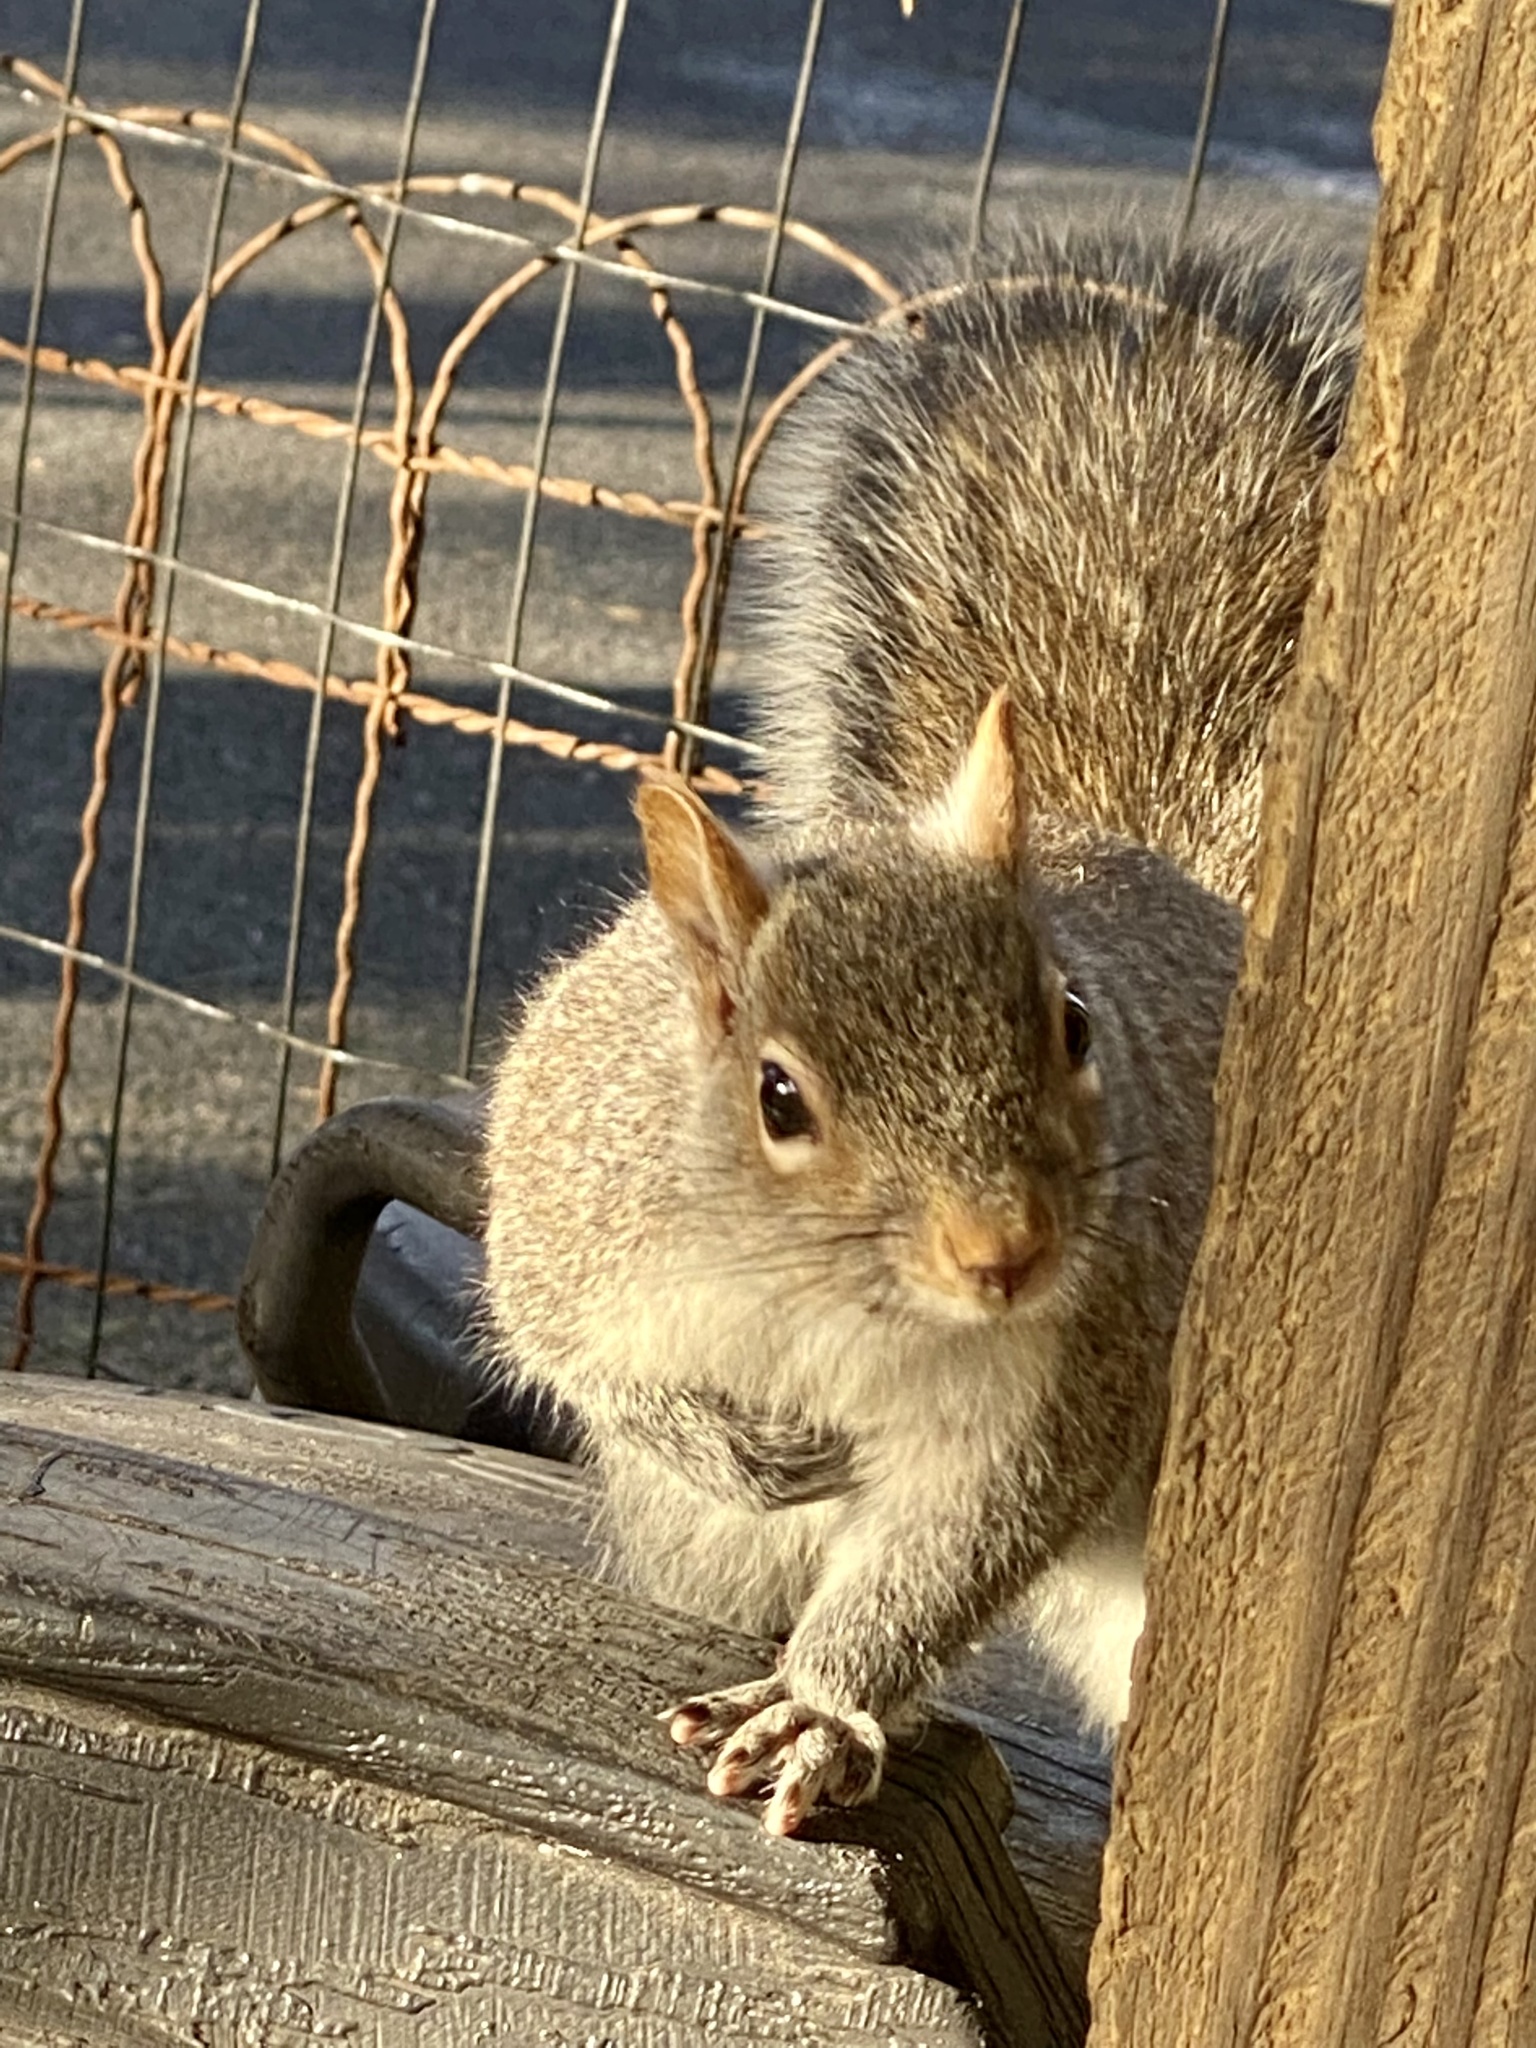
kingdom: Animalia
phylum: Chordata
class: Mammalia
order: Rodentia
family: Sciuridae
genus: Sciurus
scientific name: Sciurus carolinensis
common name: Eastern gray squirrel
